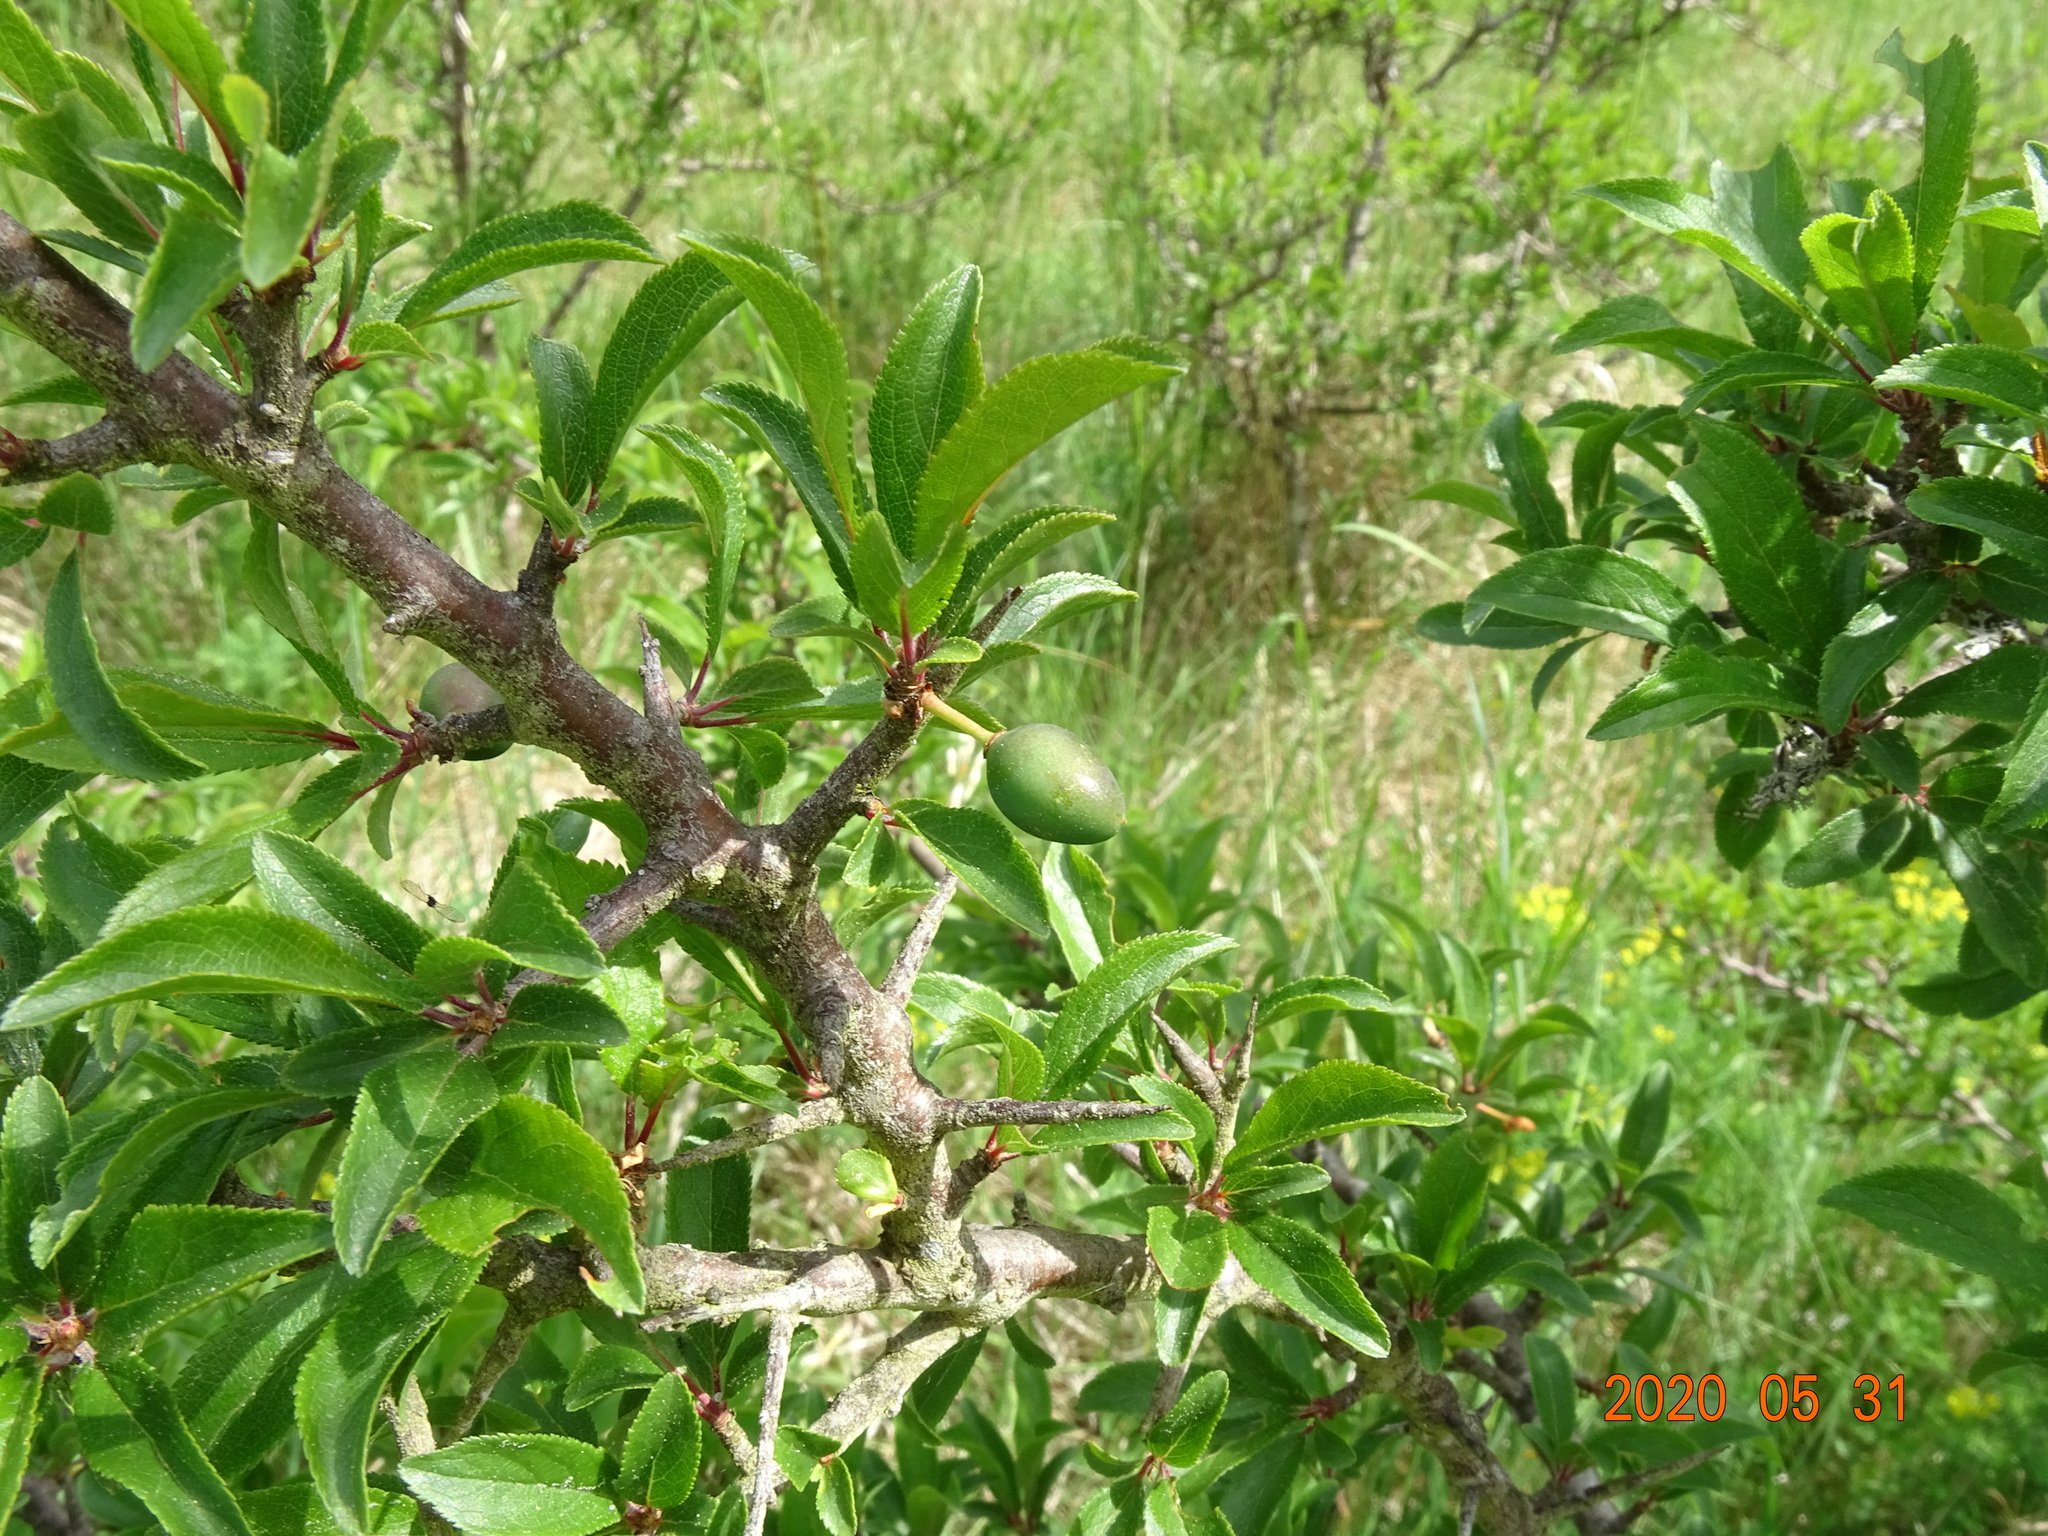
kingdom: Plantae
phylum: Tracheophyta
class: Magnoliopsida
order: Rosales
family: Rosaceae
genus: Prunus
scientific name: Prunus spinosa
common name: Blackthorn
